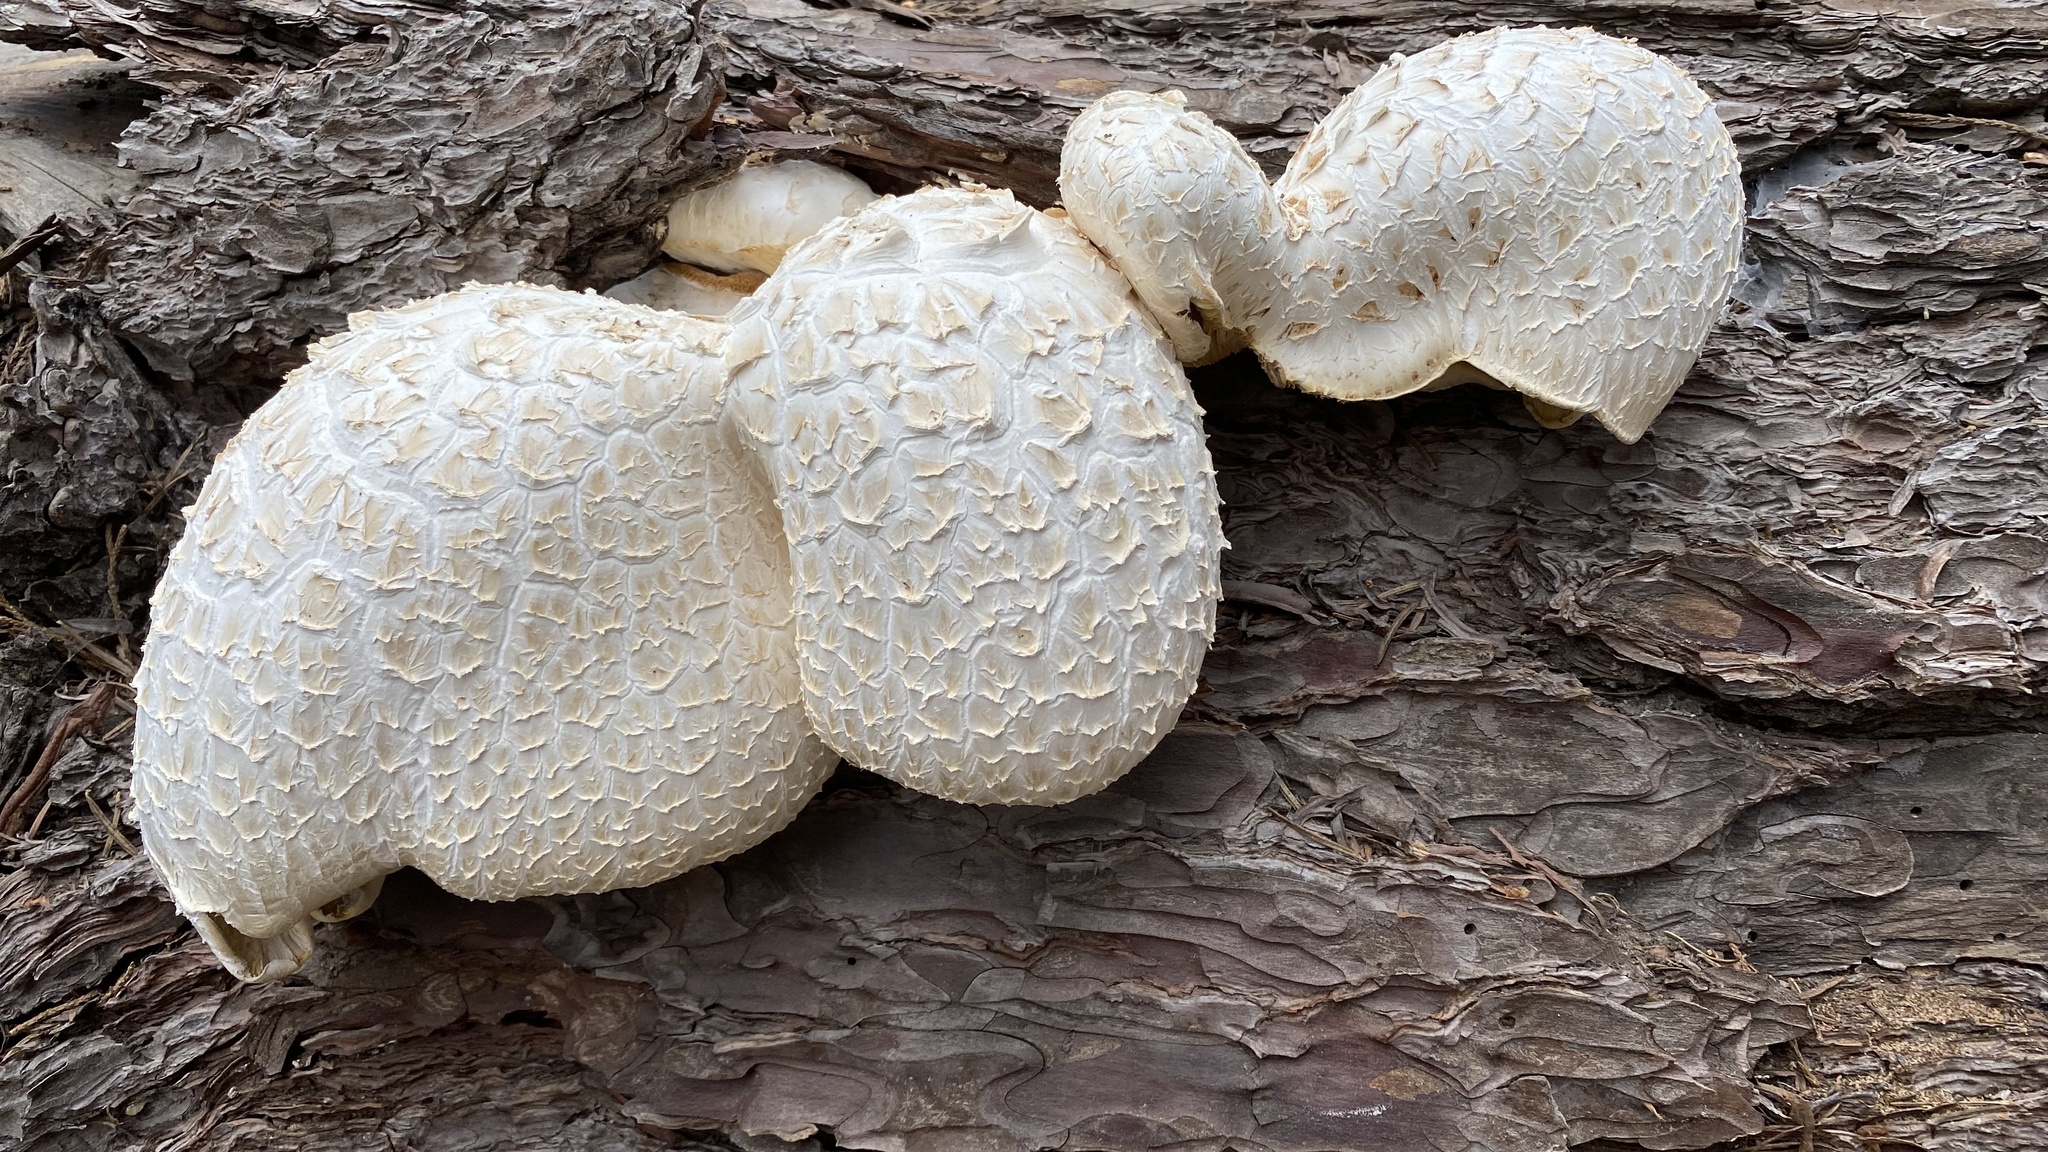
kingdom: Fungi
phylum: Basidiomycota
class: Agaricomycetes
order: Gloeophyllales
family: Gloeophyllaceae
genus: Neolentinus
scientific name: Neolentinus ponderosus
